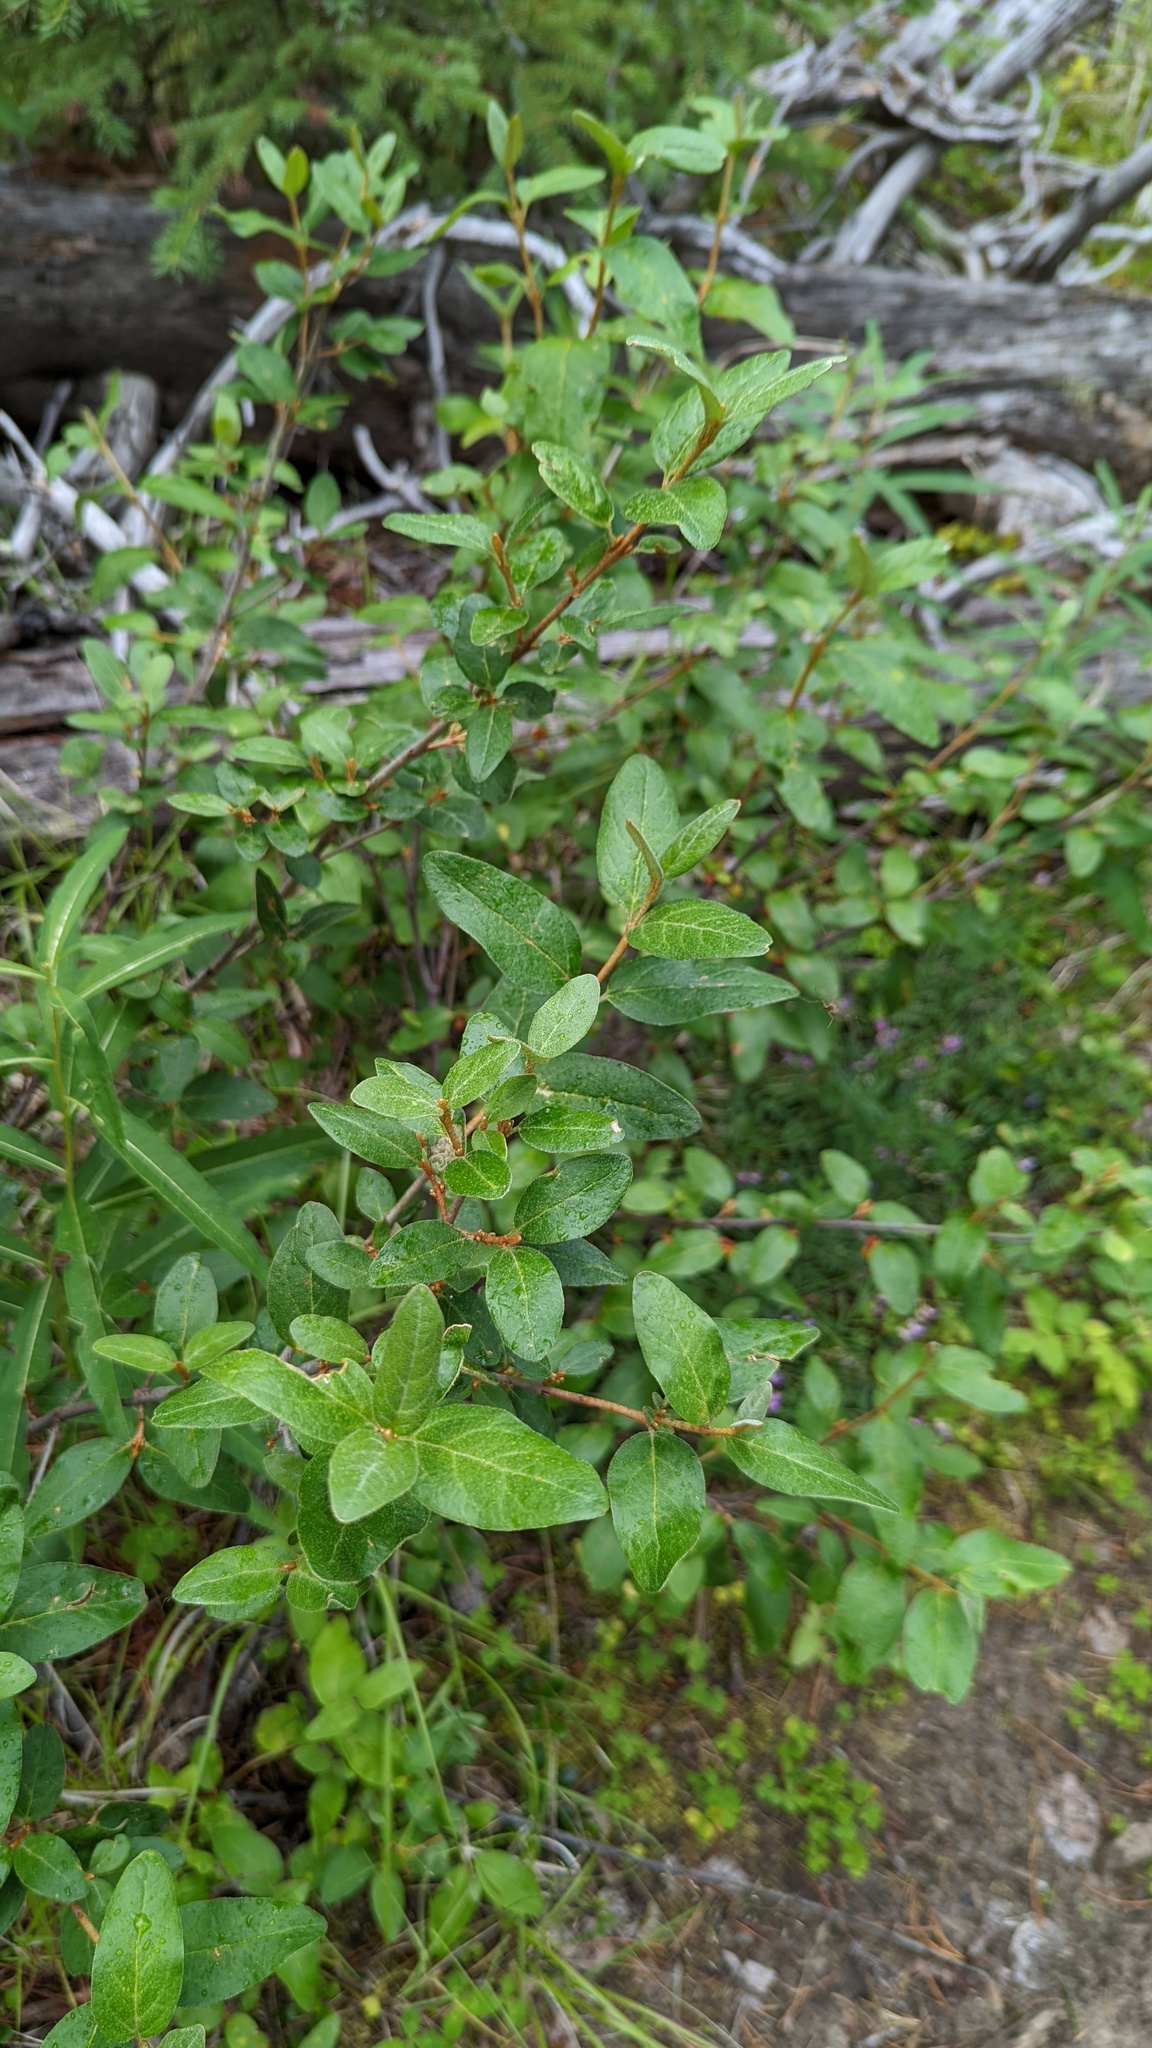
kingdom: Plantae
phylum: Tracheophyta
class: Magnoliopsida
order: Rosales
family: Elaeagnaceae
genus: Shepherdia
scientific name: Shepherdia canadensis
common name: Soapberry
